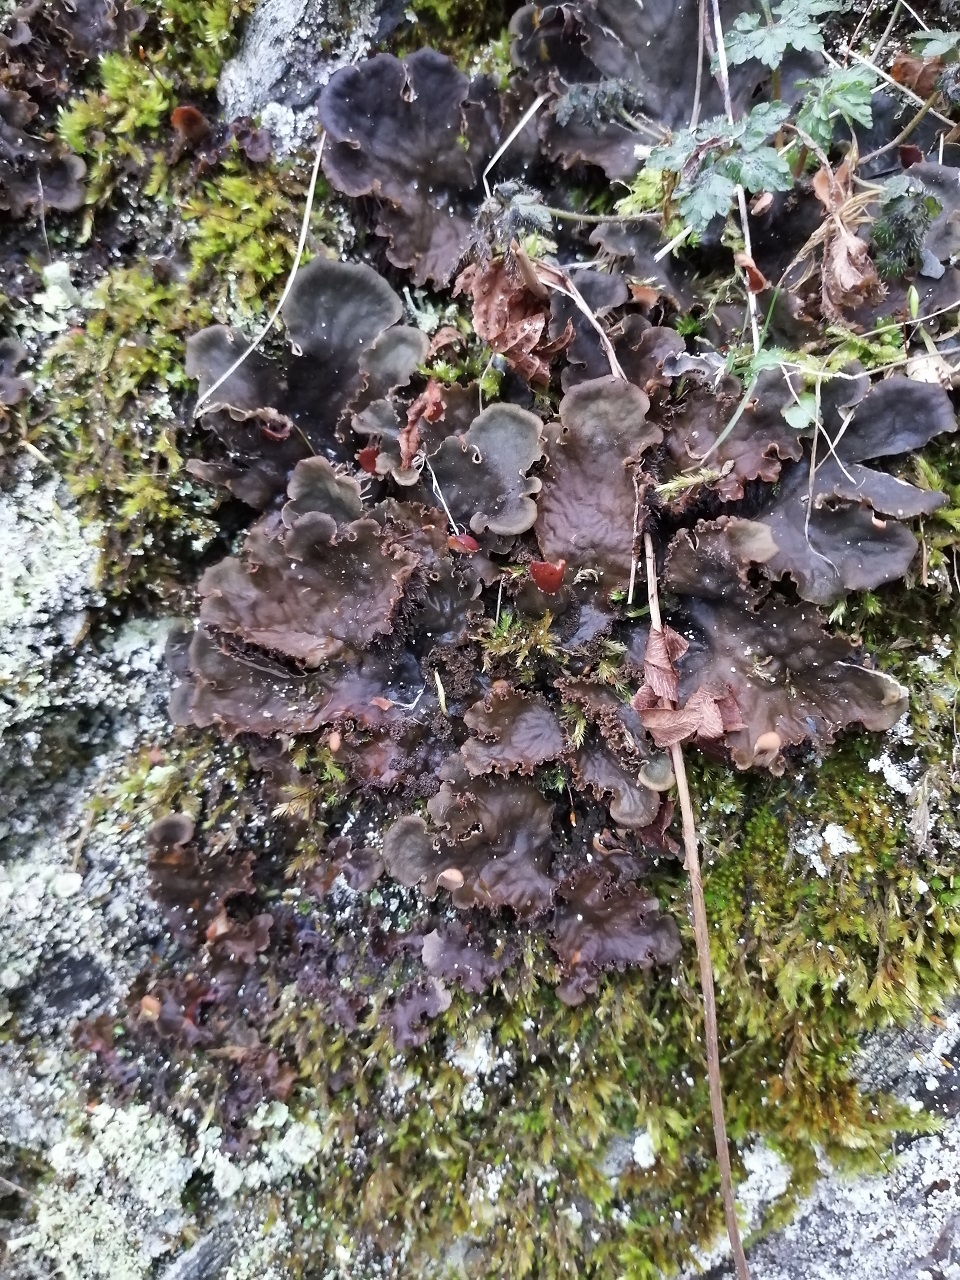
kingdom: Fungi
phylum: Ascomycota
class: Lecanoromycetes
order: Peltigerales
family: Peltigeraceae
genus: Peltigera
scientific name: Peltigera praetextata
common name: Scaly dog-lichen
